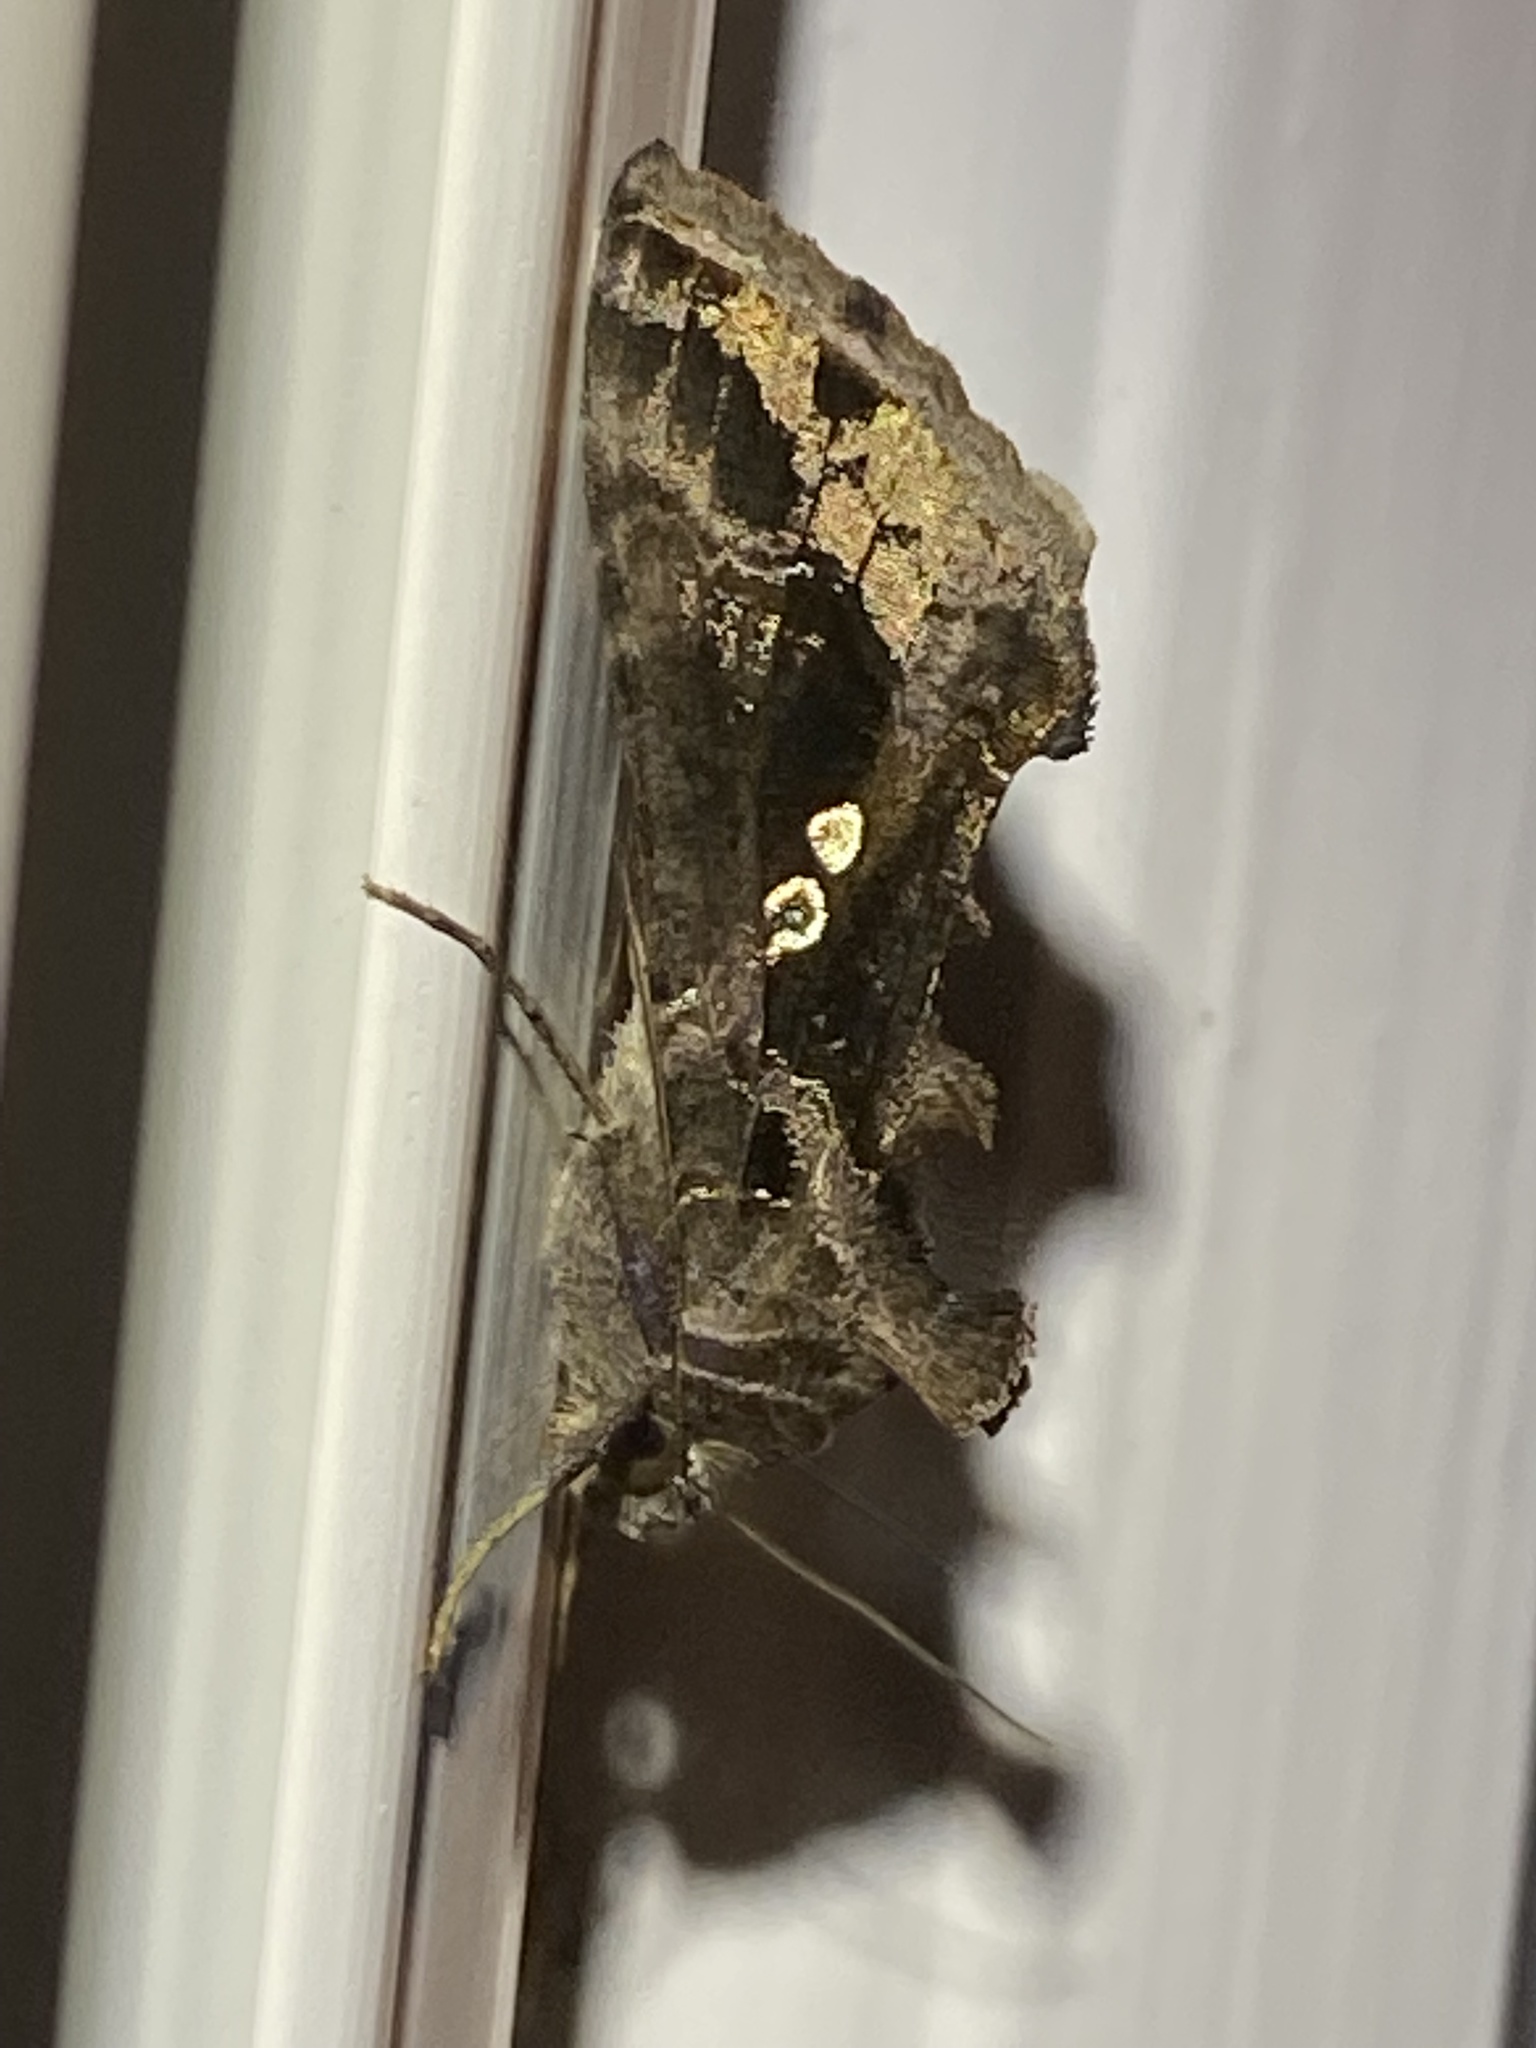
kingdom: Animalia
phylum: Arthropoda
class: Insecta
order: Lepidoptera
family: Noctuidae
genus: Chrysodeixis
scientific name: Chrysodeixis includens
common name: Cutworm moth
